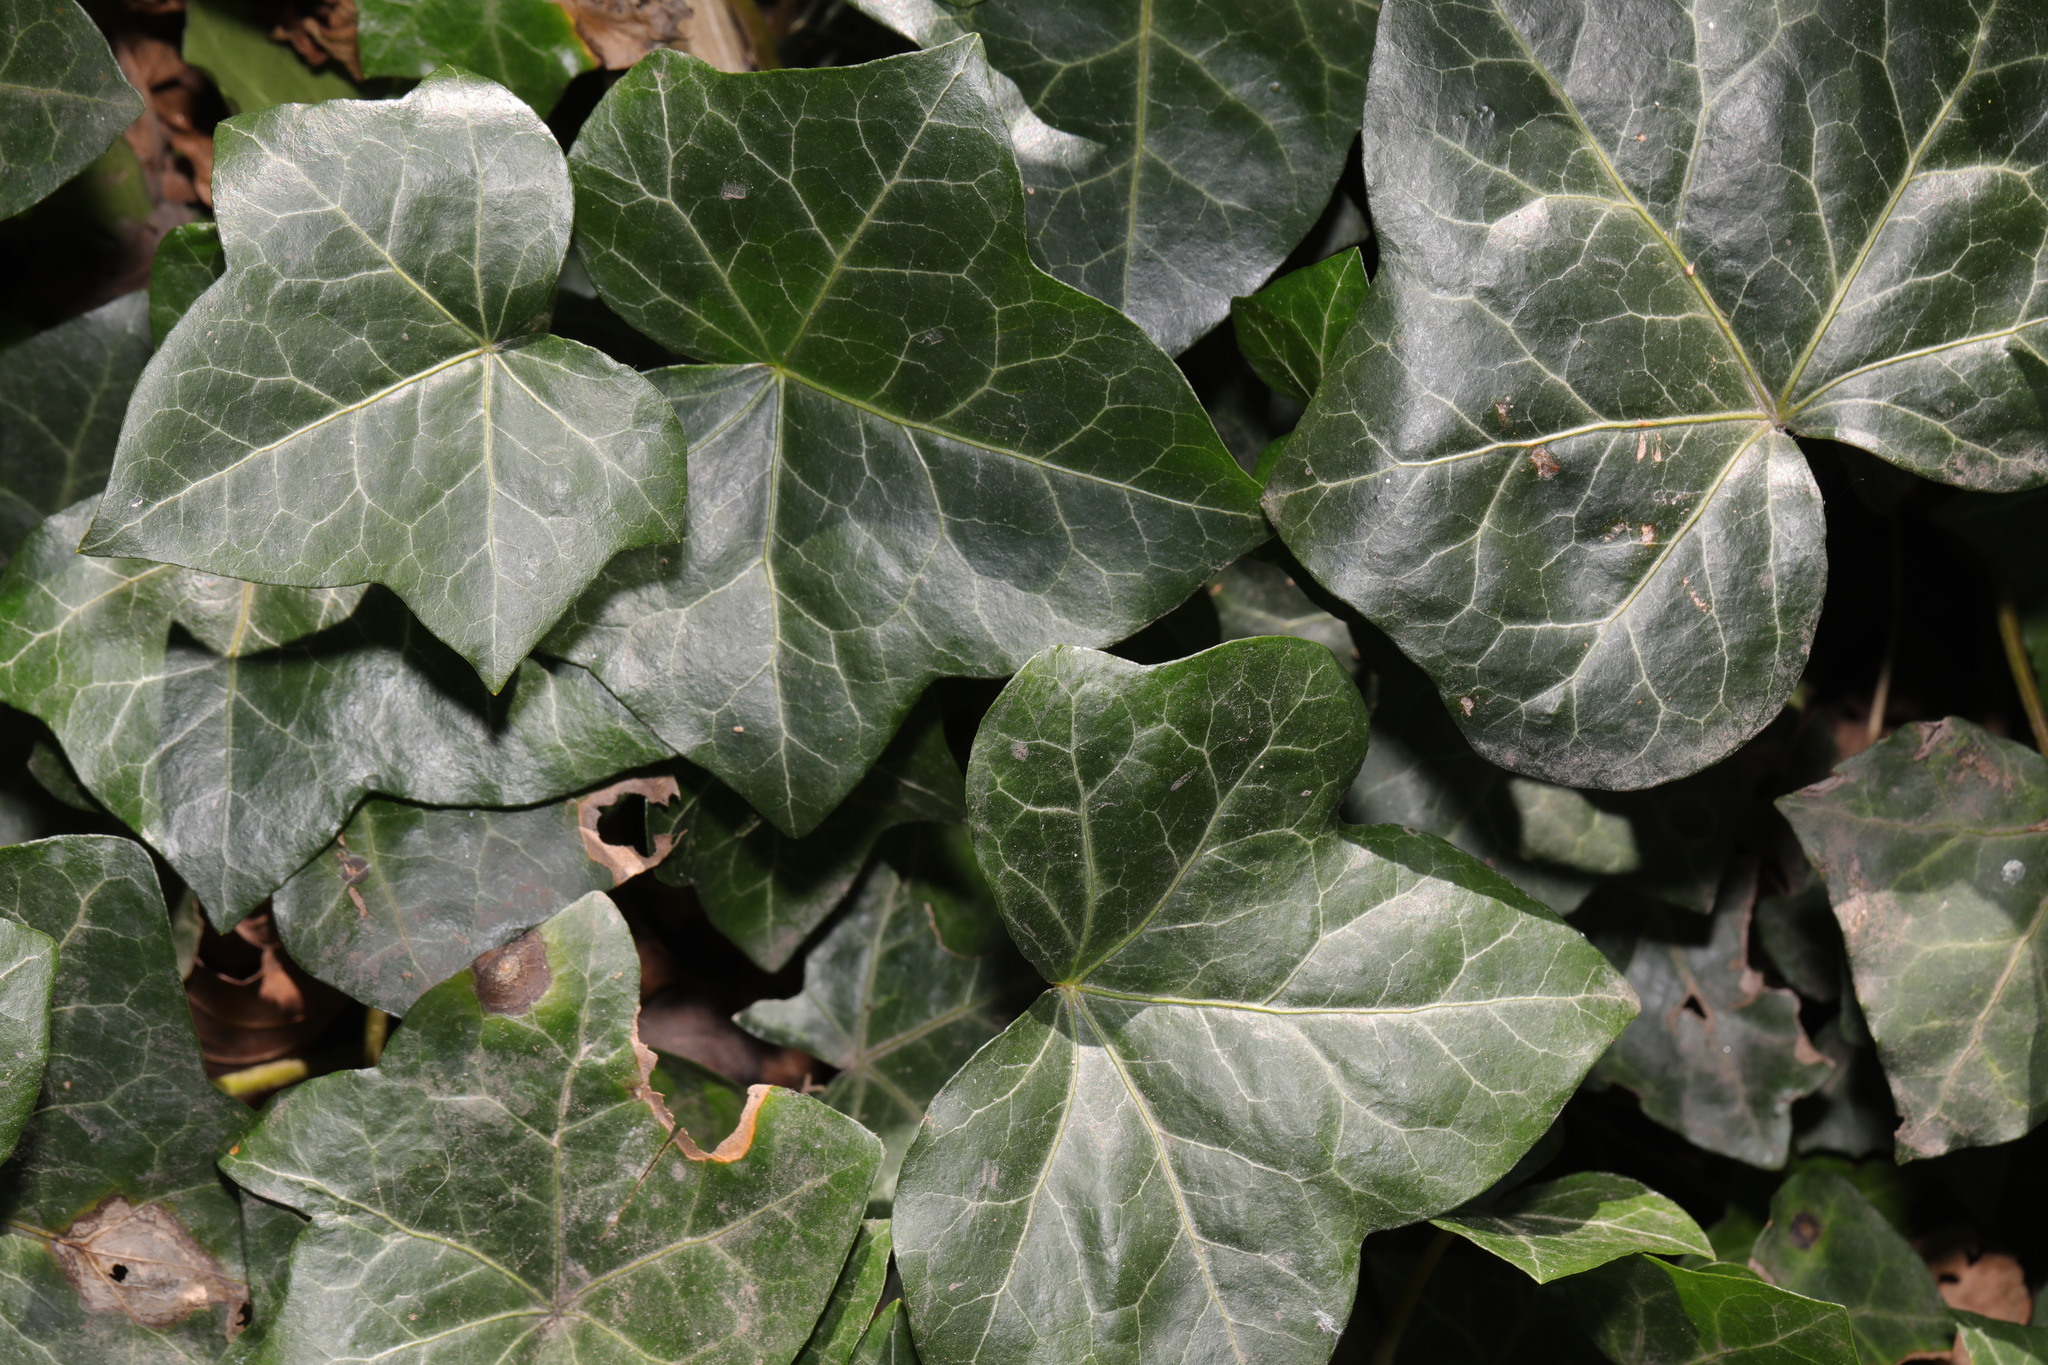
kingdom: Plantae
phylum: Tracheophyta
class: Magnoliopsida
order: Apiales
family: Araliaceae
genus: Hedera
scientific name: Hedera helix
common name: Ivy
